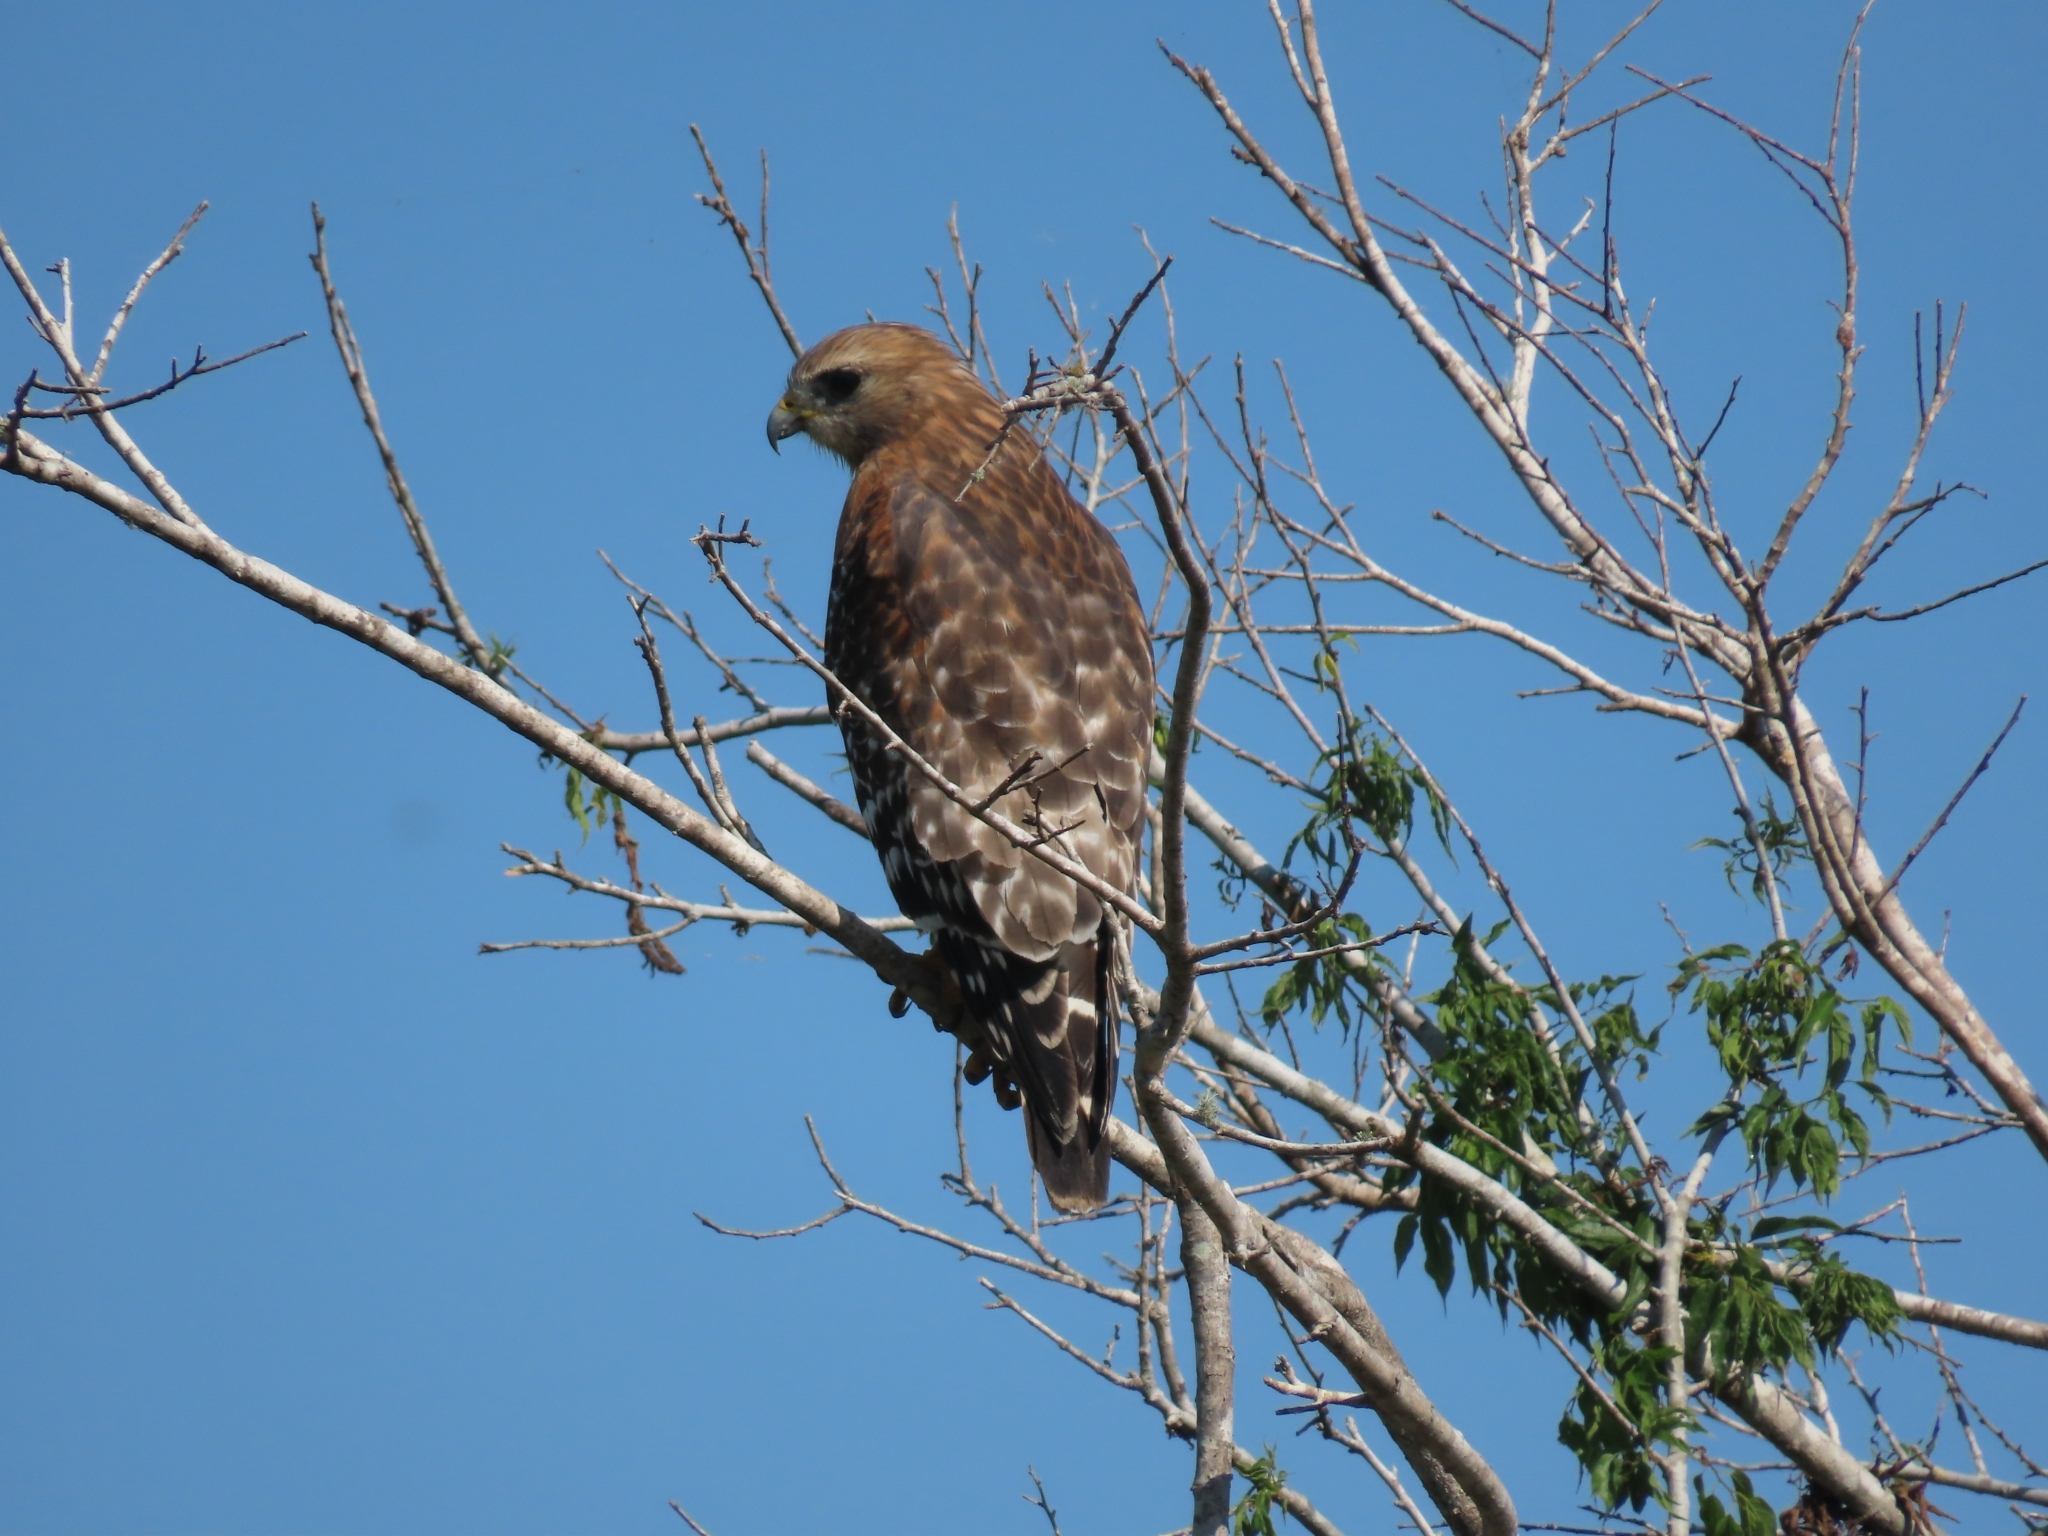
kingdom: Animalia
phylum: Chordata
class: Aves
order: Accipitriformes
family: Accipitridae
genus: Buteo
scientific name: Buteo lineatus
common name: Red-shouldered hawk
